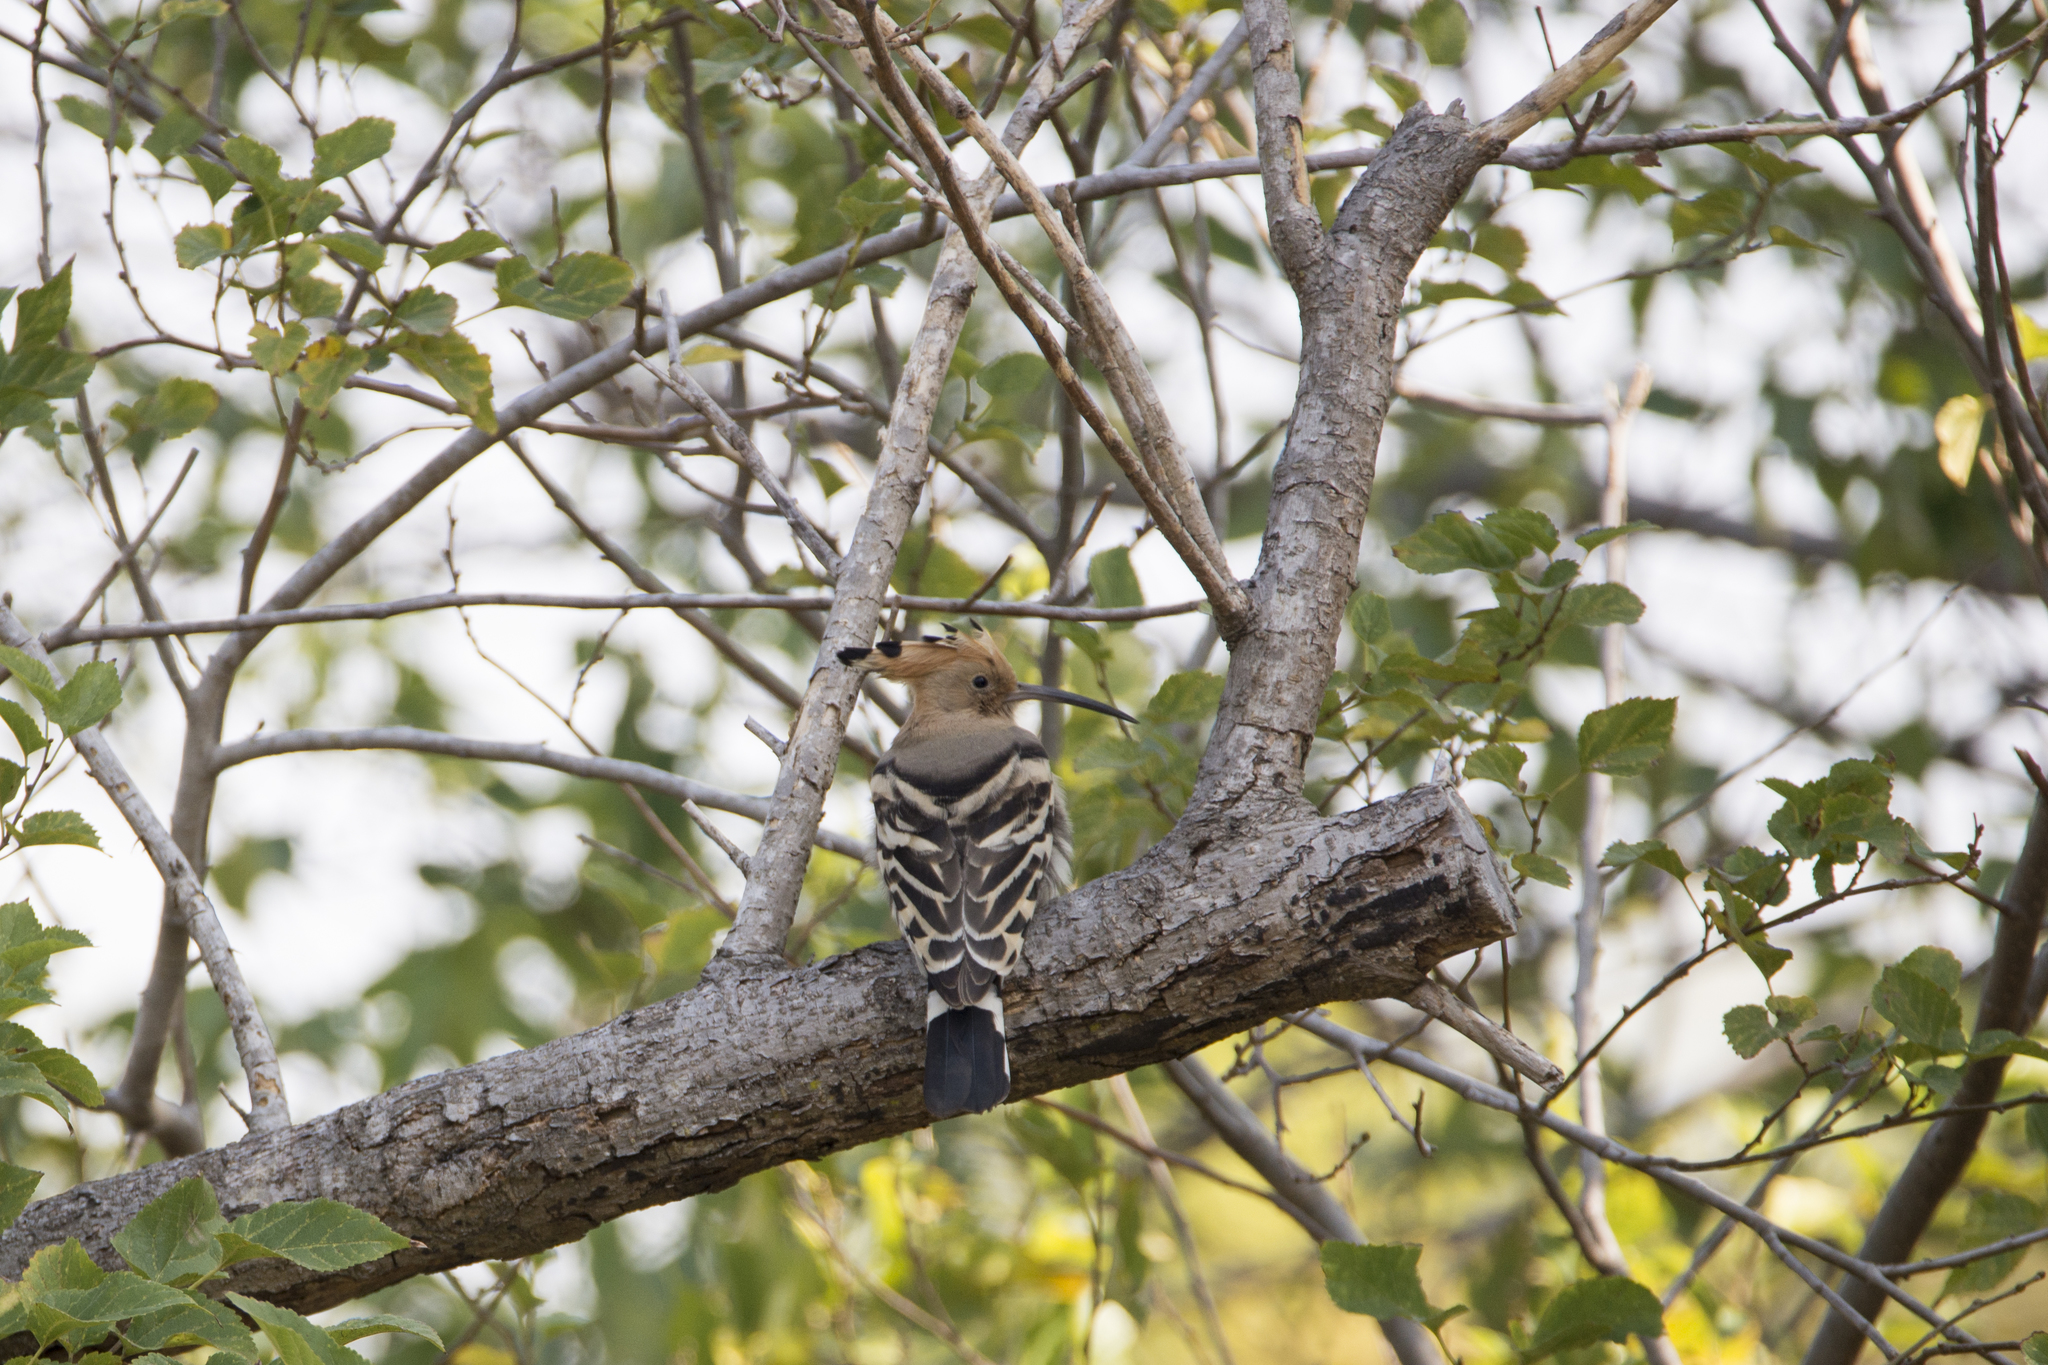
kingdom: Animalia
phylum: Chordata
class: Aves
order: Bucerotiformes
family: Upupidae
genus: Upupa
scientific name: Upupa epops
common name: Eurasian hoopoe
